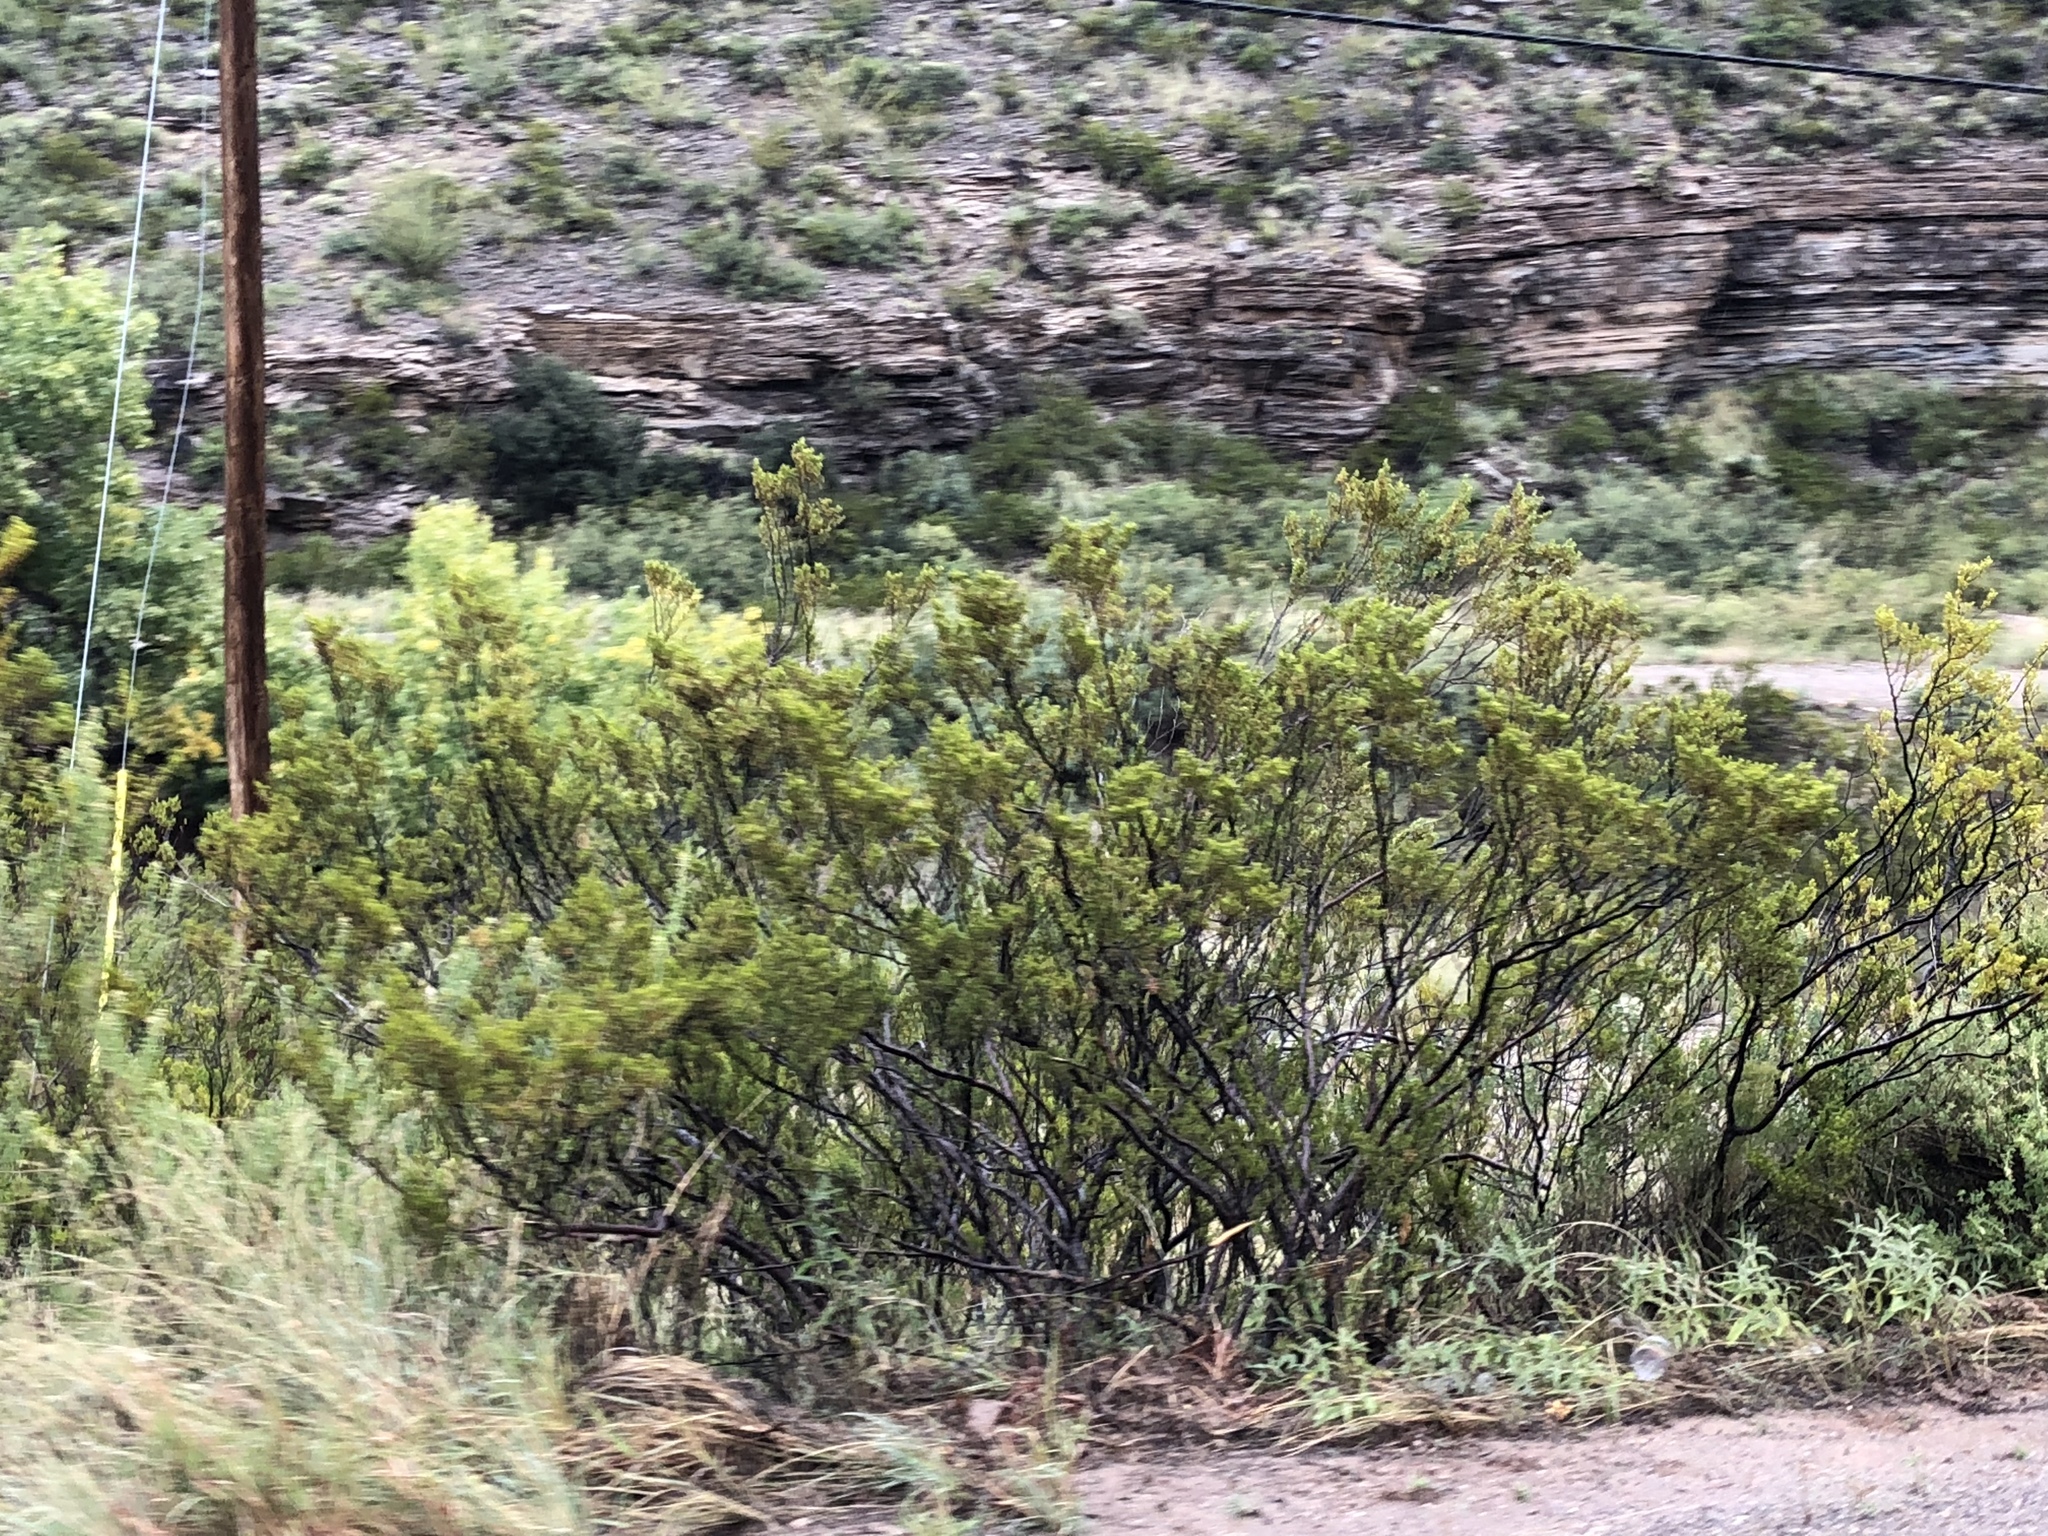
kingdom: Plantae
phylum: Tracheophyta
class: Magnoliopsida
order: Zygophyllales
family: Zygophyllaceae
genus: Larrea
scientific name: Larrea tridentata
